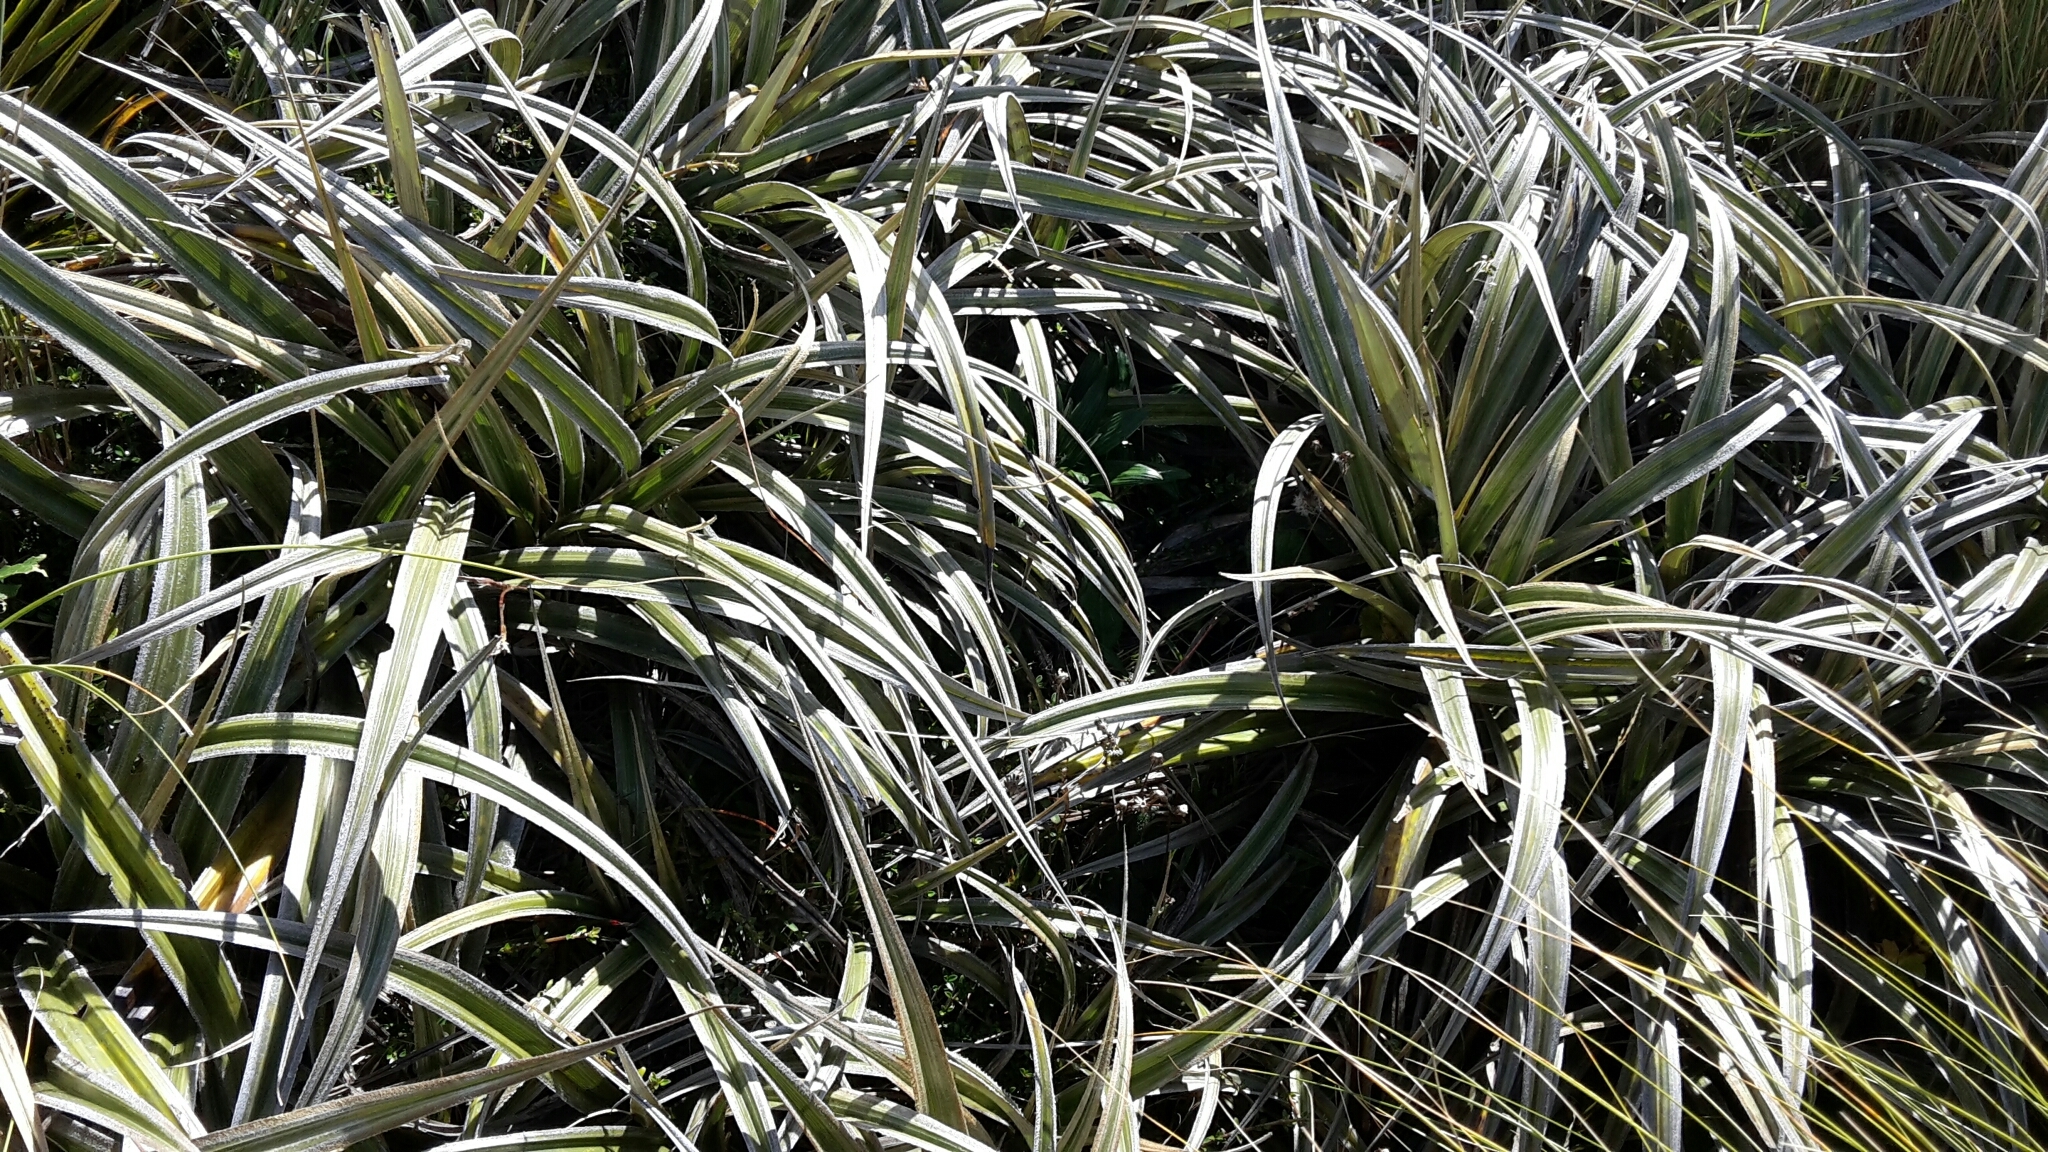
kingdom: Plantae
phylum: Tracheophyta
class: Liliopsida
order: Asparagales
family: Asteliaceae
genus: Astelia
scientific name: Astelia nervosa
